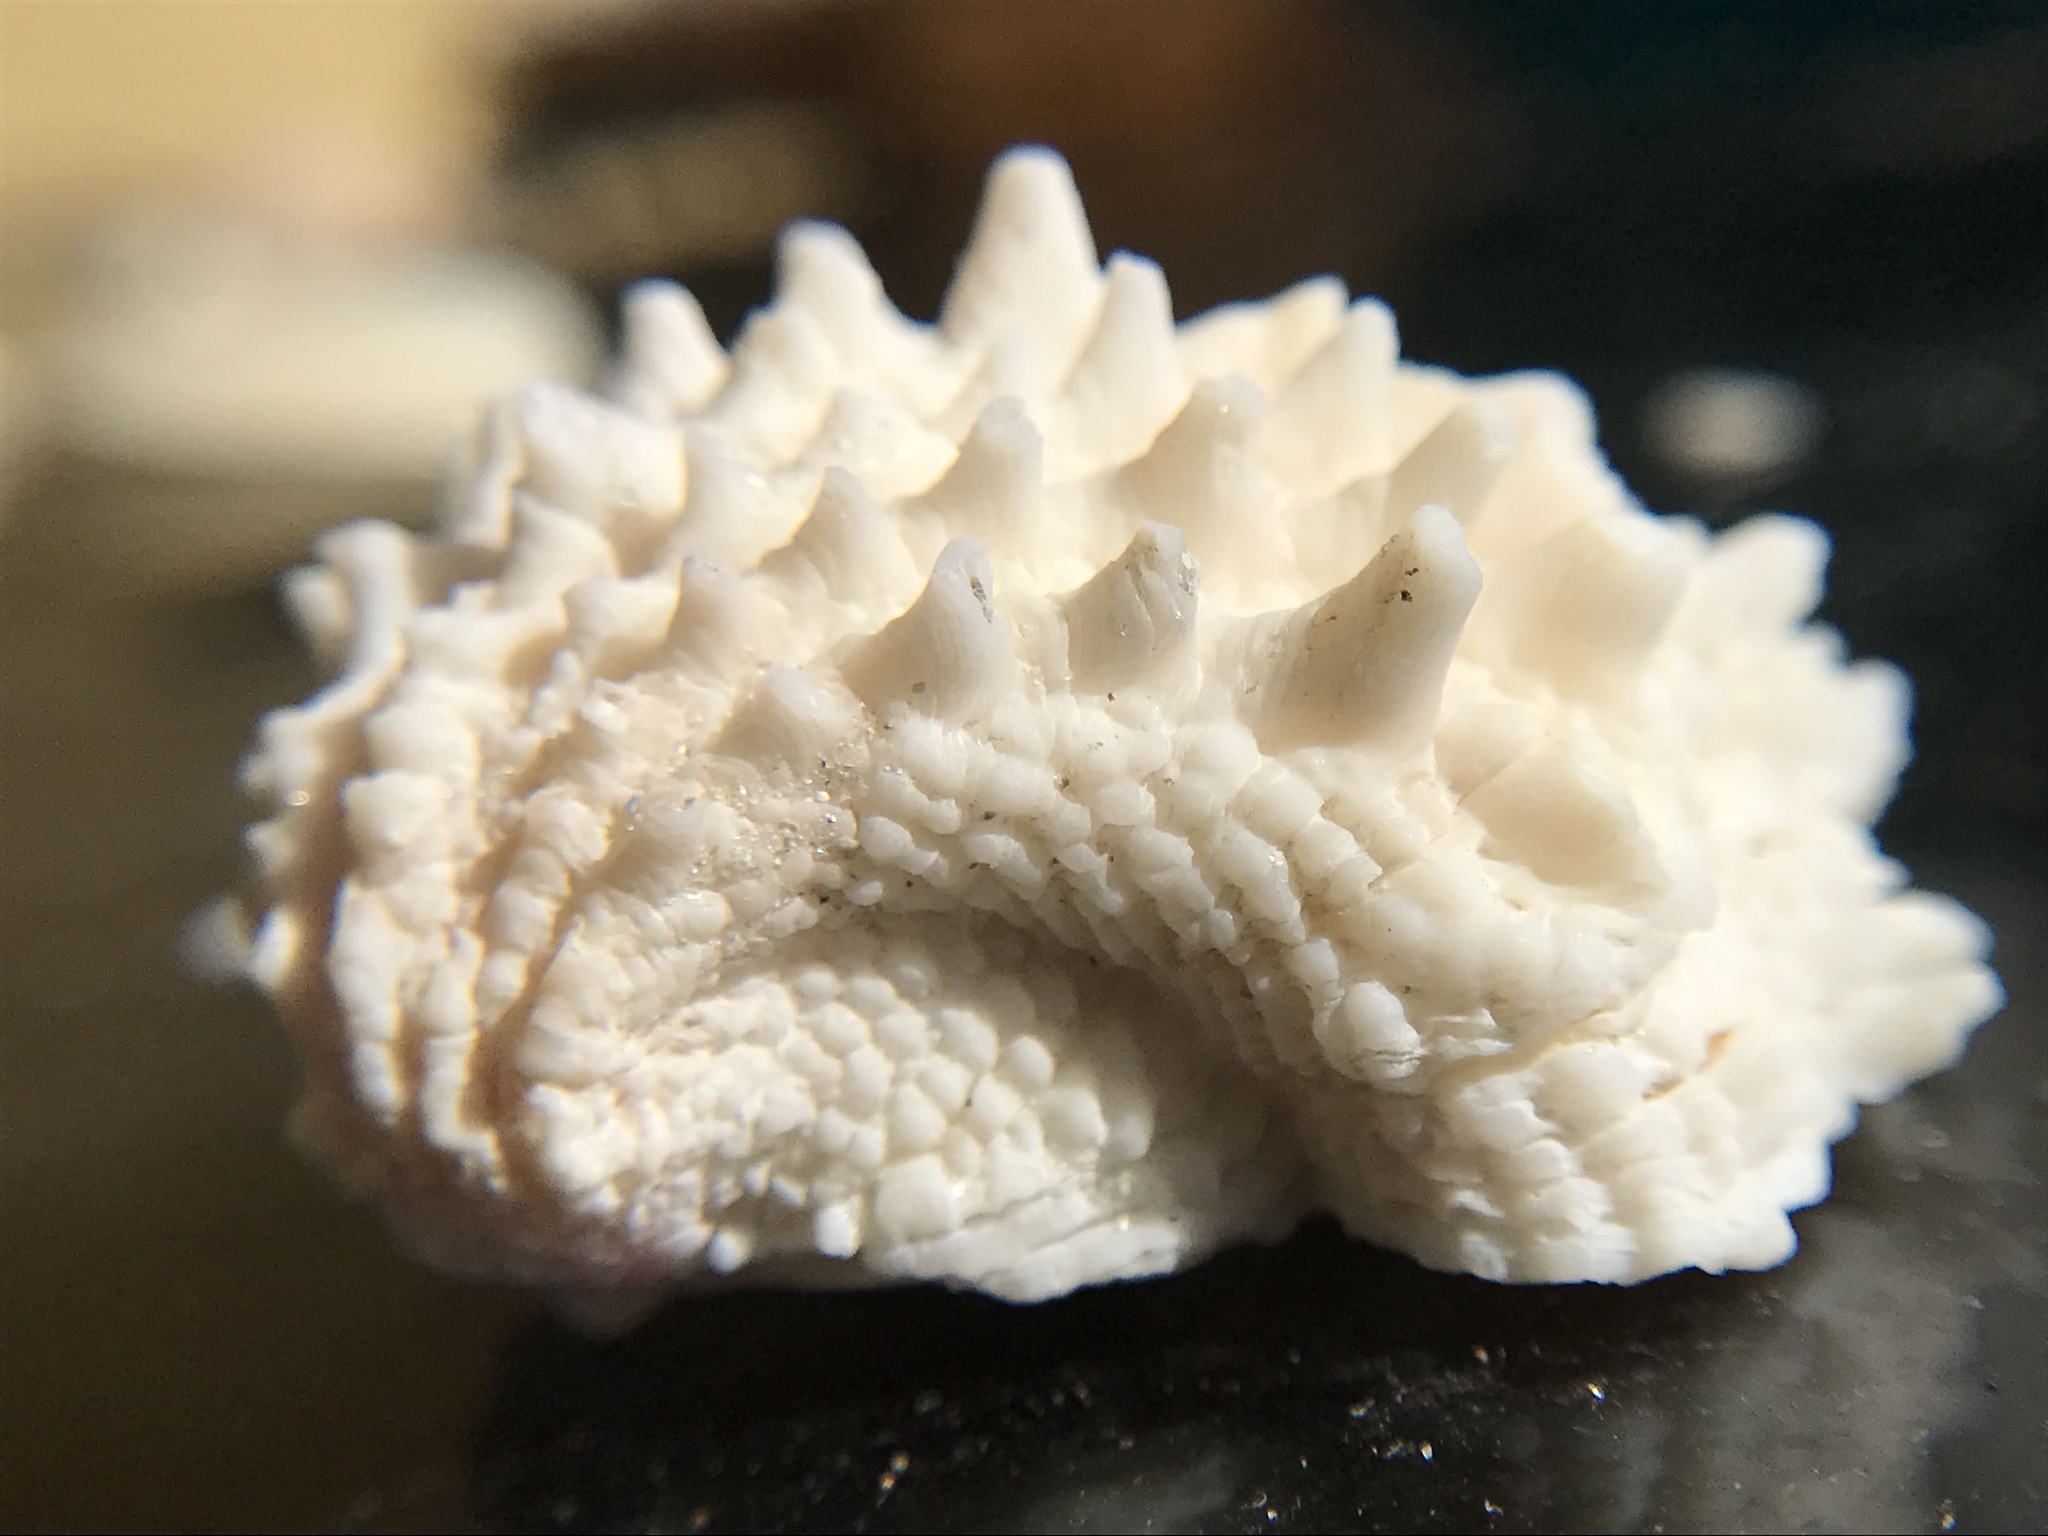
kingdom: Animalia
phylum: Mollusca
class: Bivalvia
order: Venerida
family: Chamidae
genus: Arcinella
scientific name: Arcinella cornuta
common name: Florida spiny jewel box
